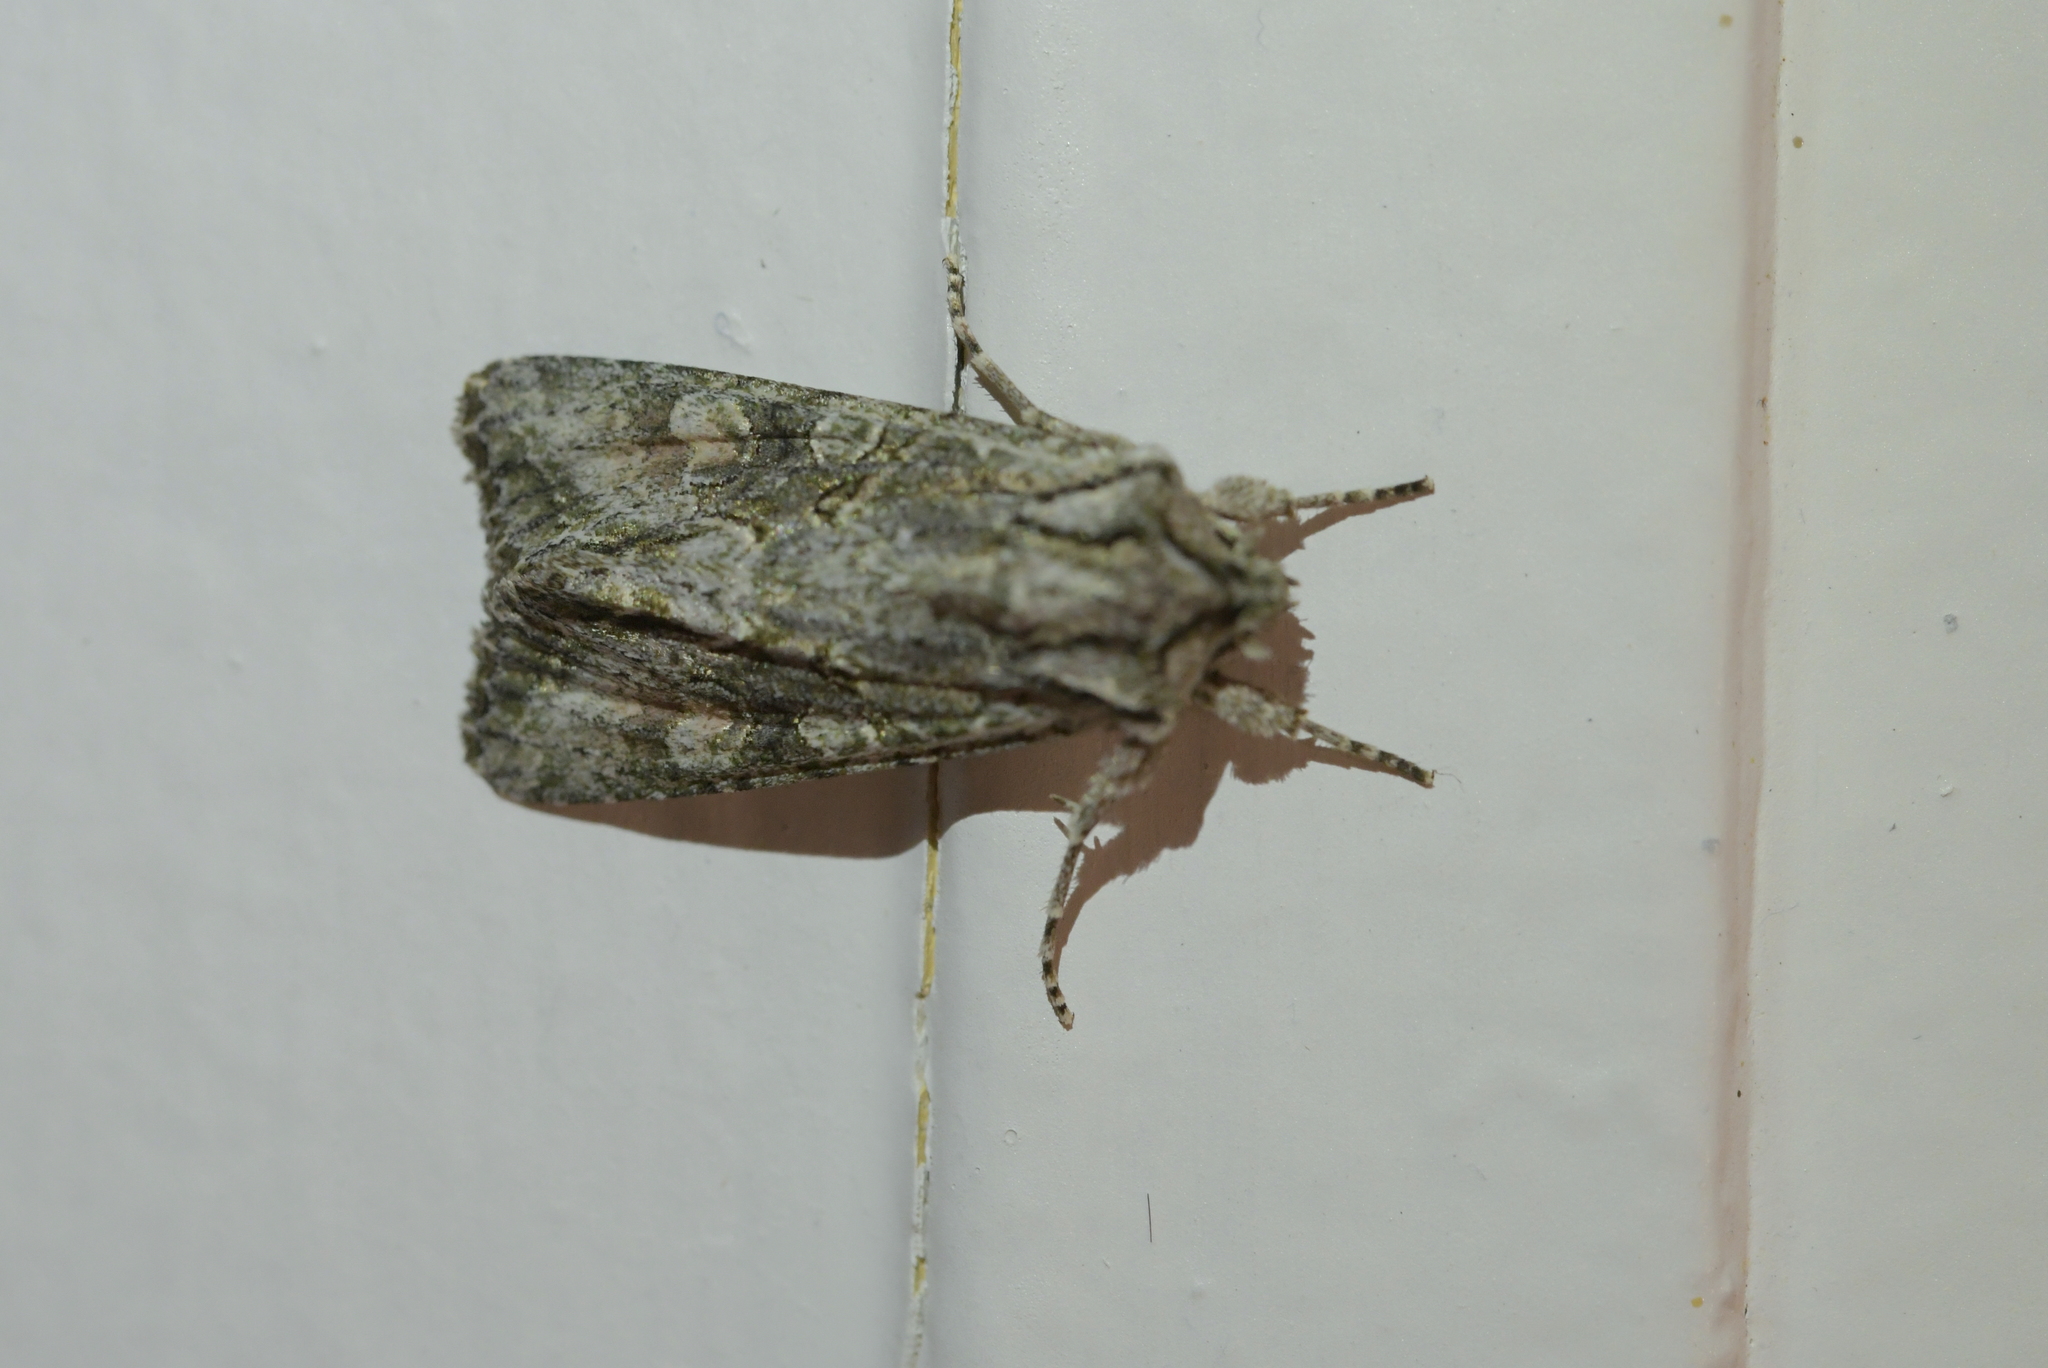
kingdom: Animalia
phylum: Arthropoda
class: Insecta
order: Lepidoptera
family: Noctuidae
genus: Ichneutica
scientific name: Ichneutica mutans
